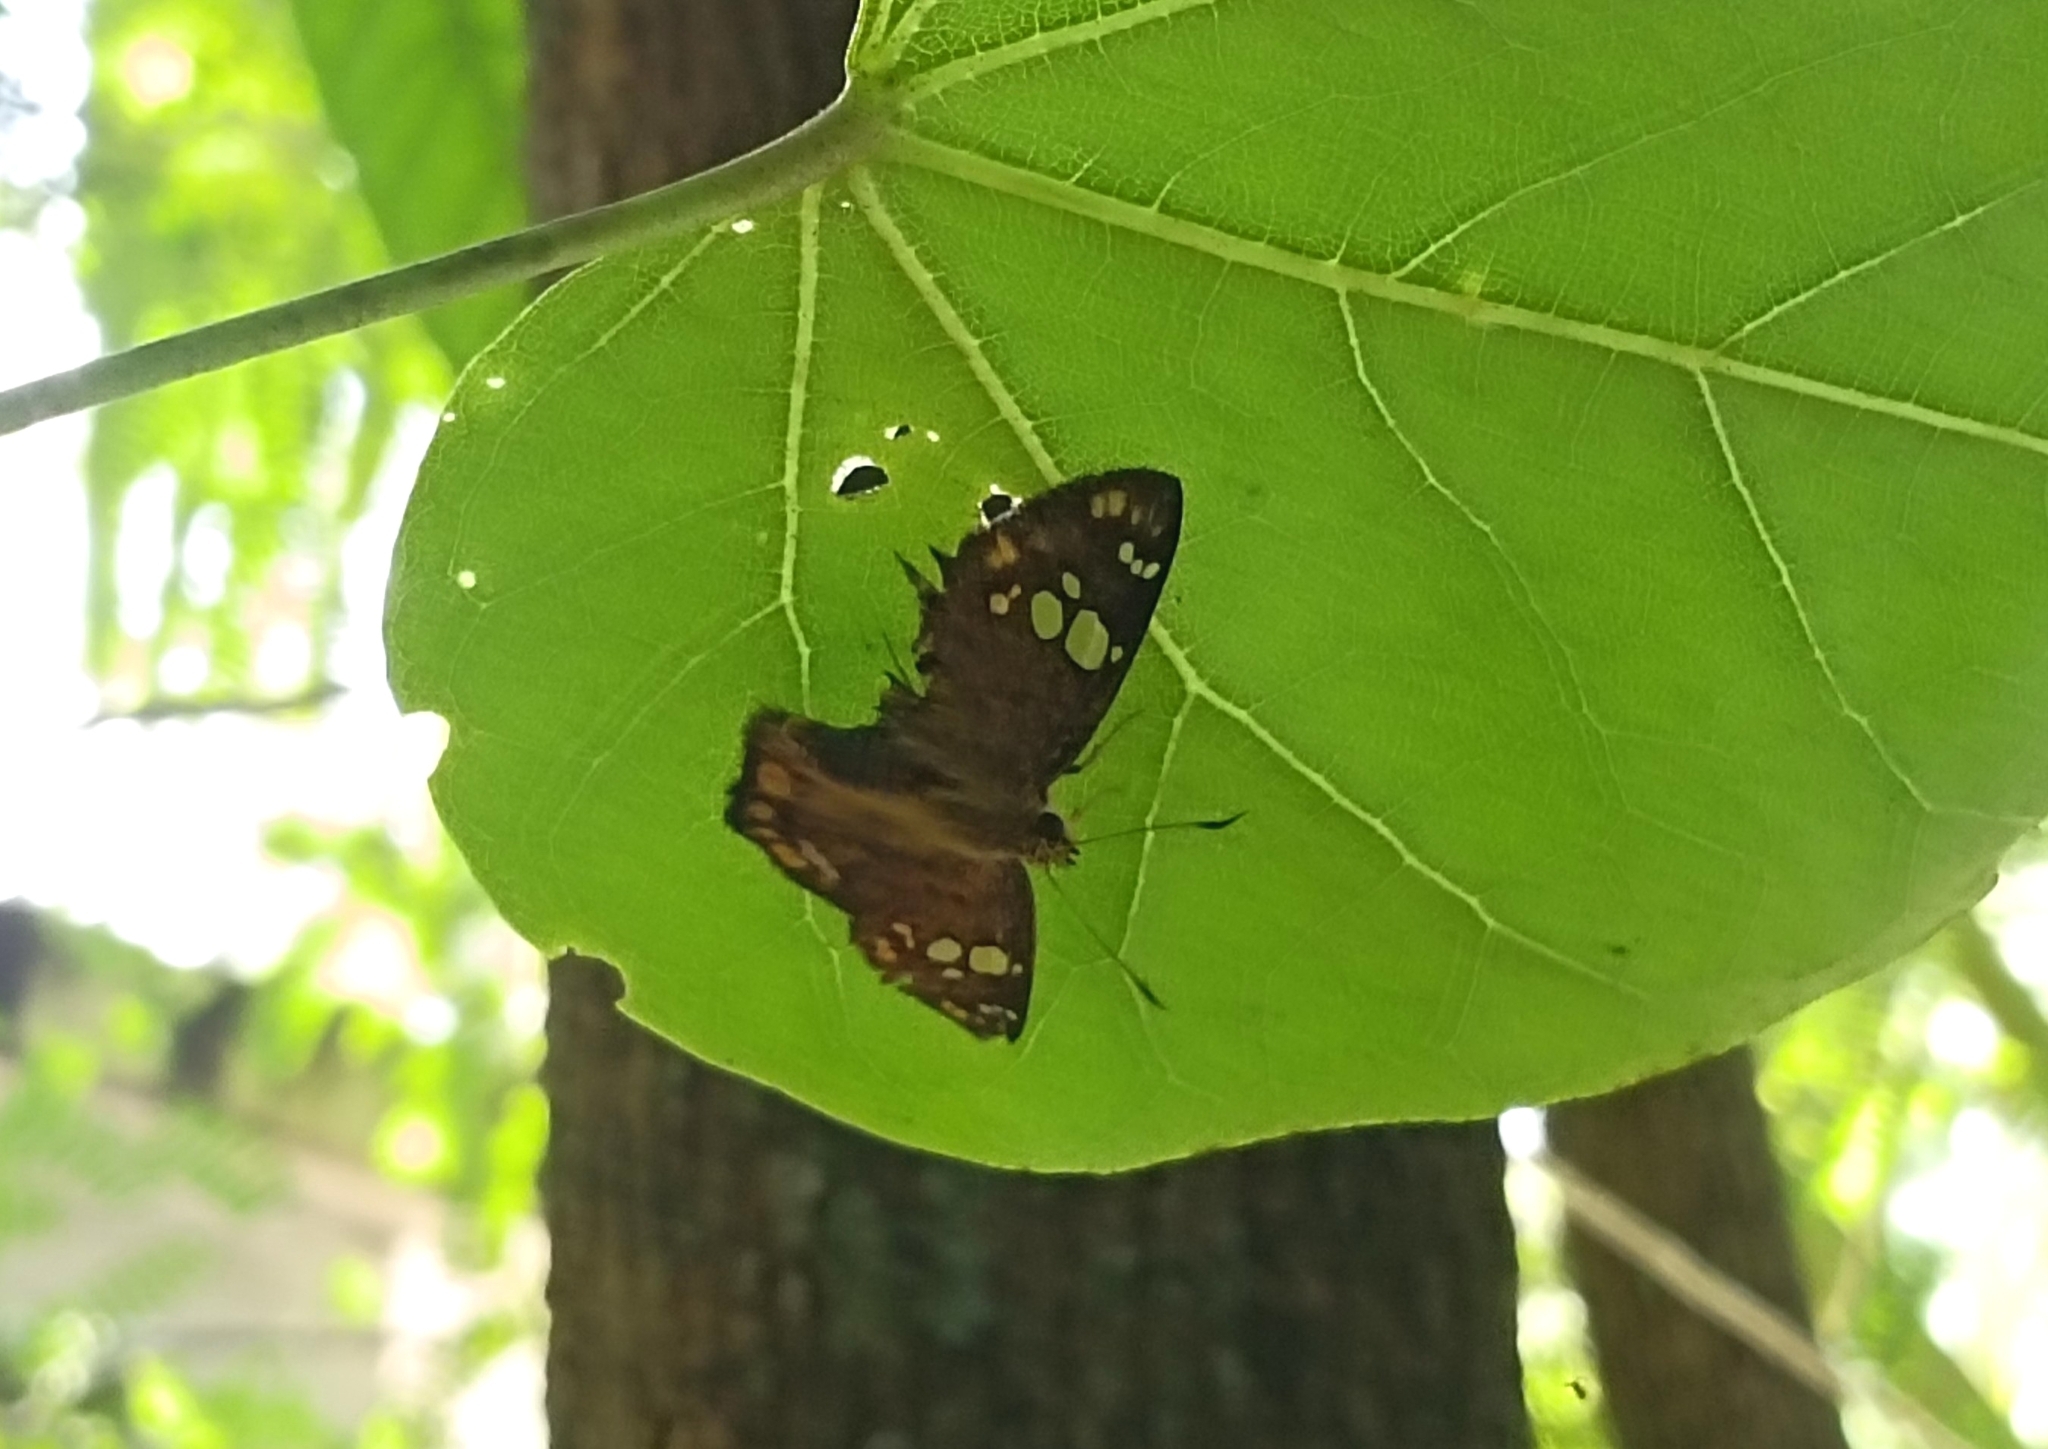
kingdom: Animalia
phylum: Arthropoda
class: Insecta
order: Lepidoptera
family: Hesperiidae
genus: Coladenia
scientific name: Coladenia
